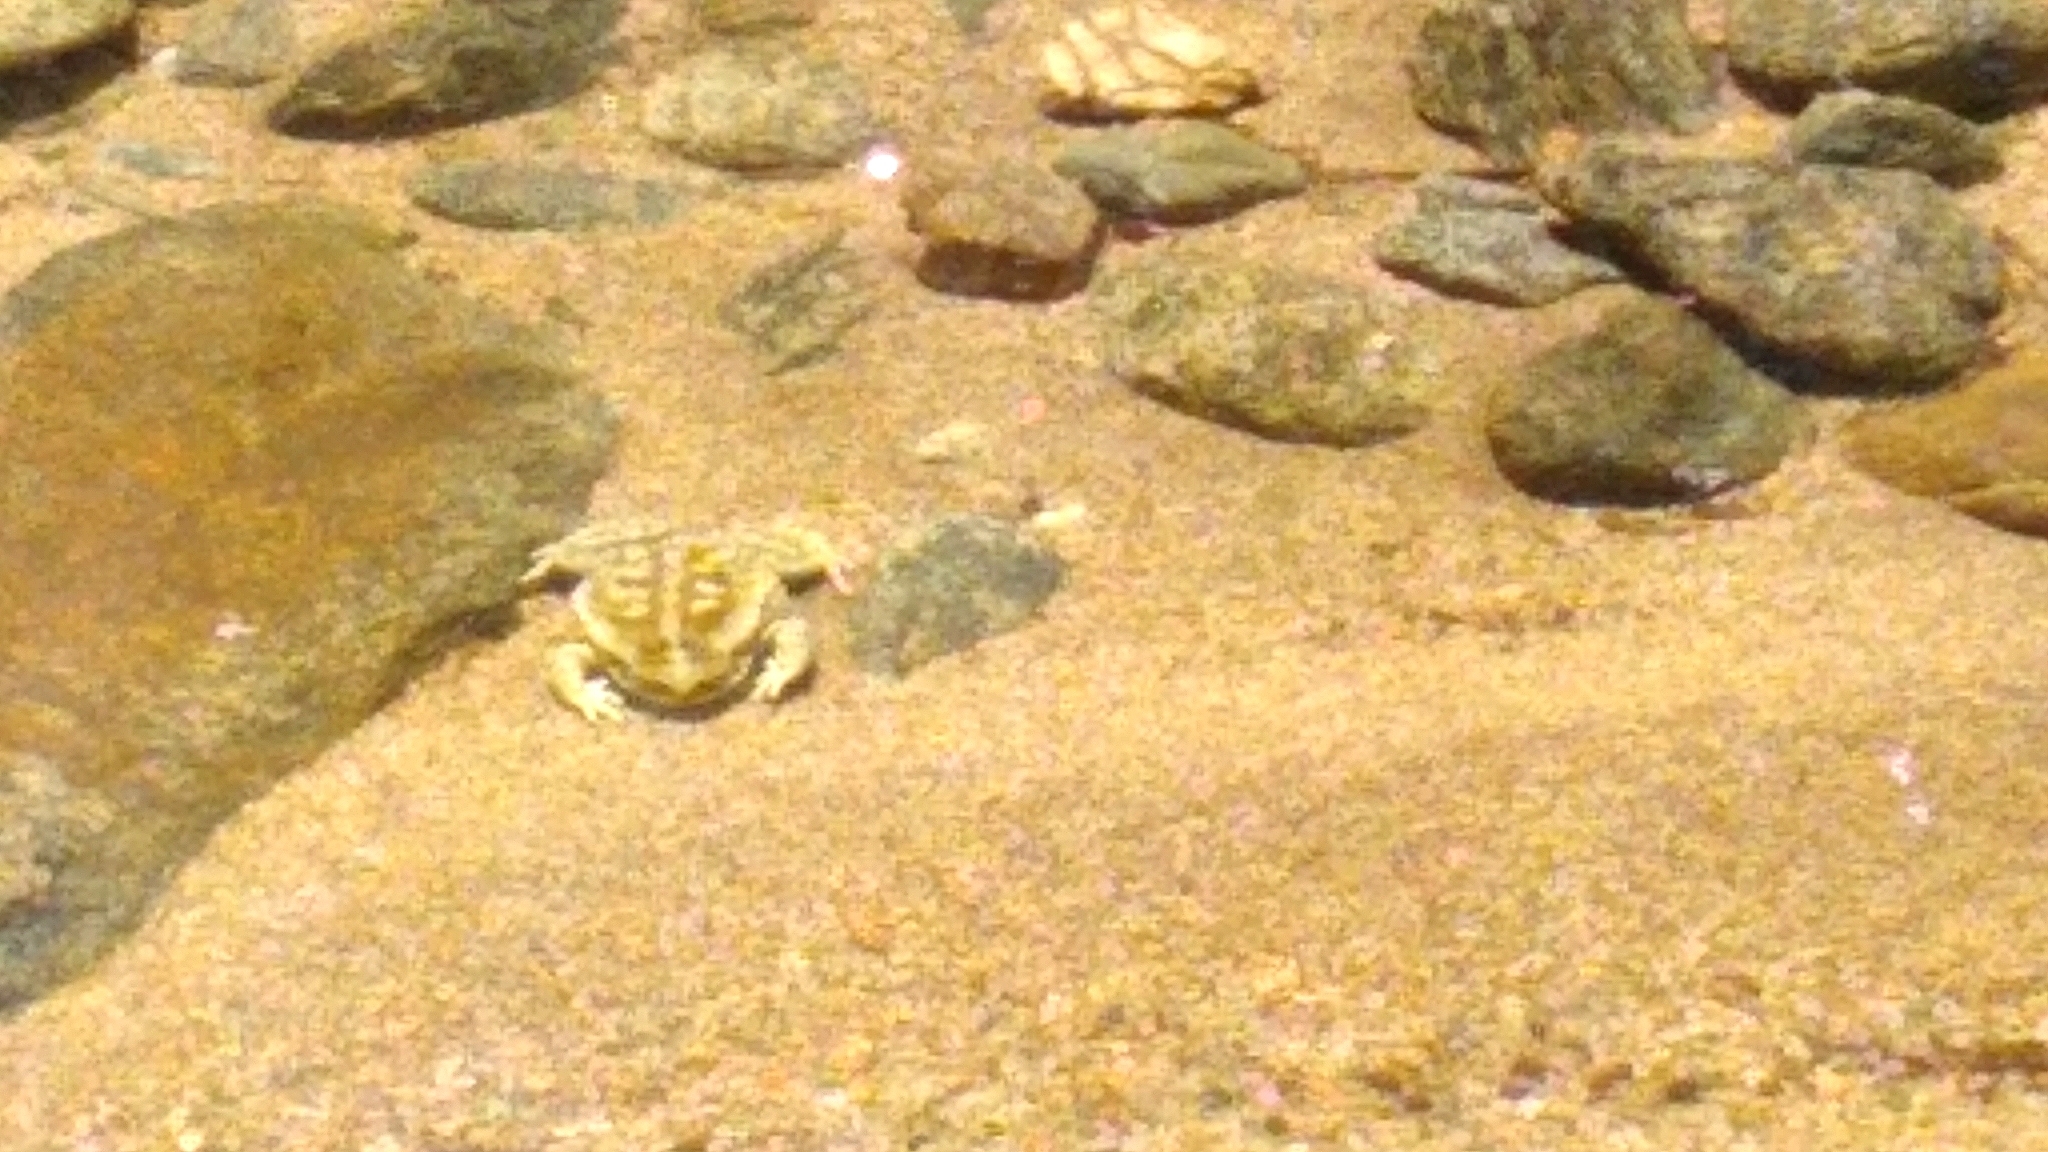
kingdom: Animalia
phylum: Chordata
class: Amphibia
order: Anura
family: Bufonidae
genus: Rhinella
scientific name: Rhinella arenarum
